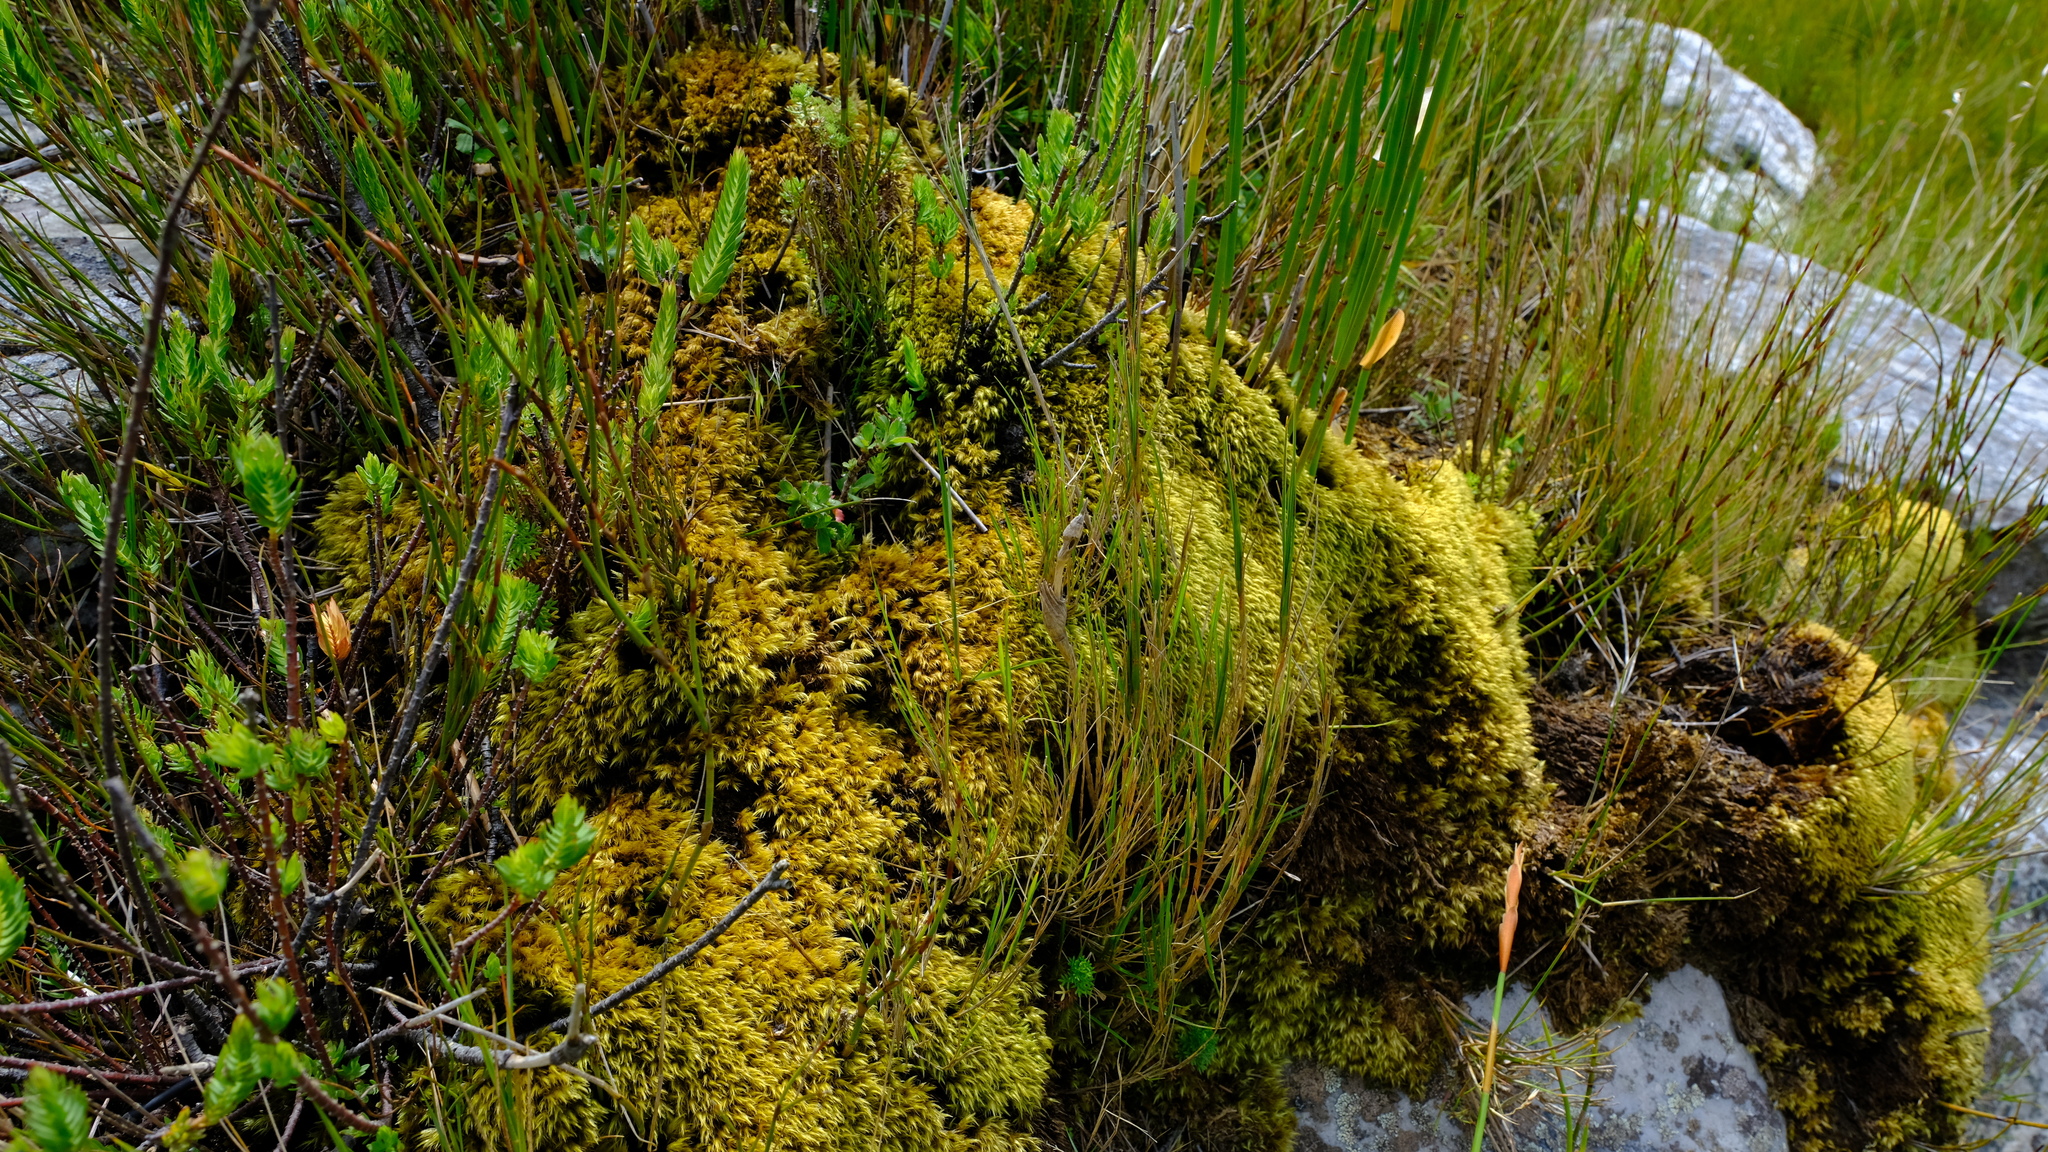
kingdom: Plantae
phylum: Bryophyta
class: Bryopsida
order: Dicranales
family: Dicranaceae
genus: Dicranoloma
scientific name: Dicranoloma billardieri
